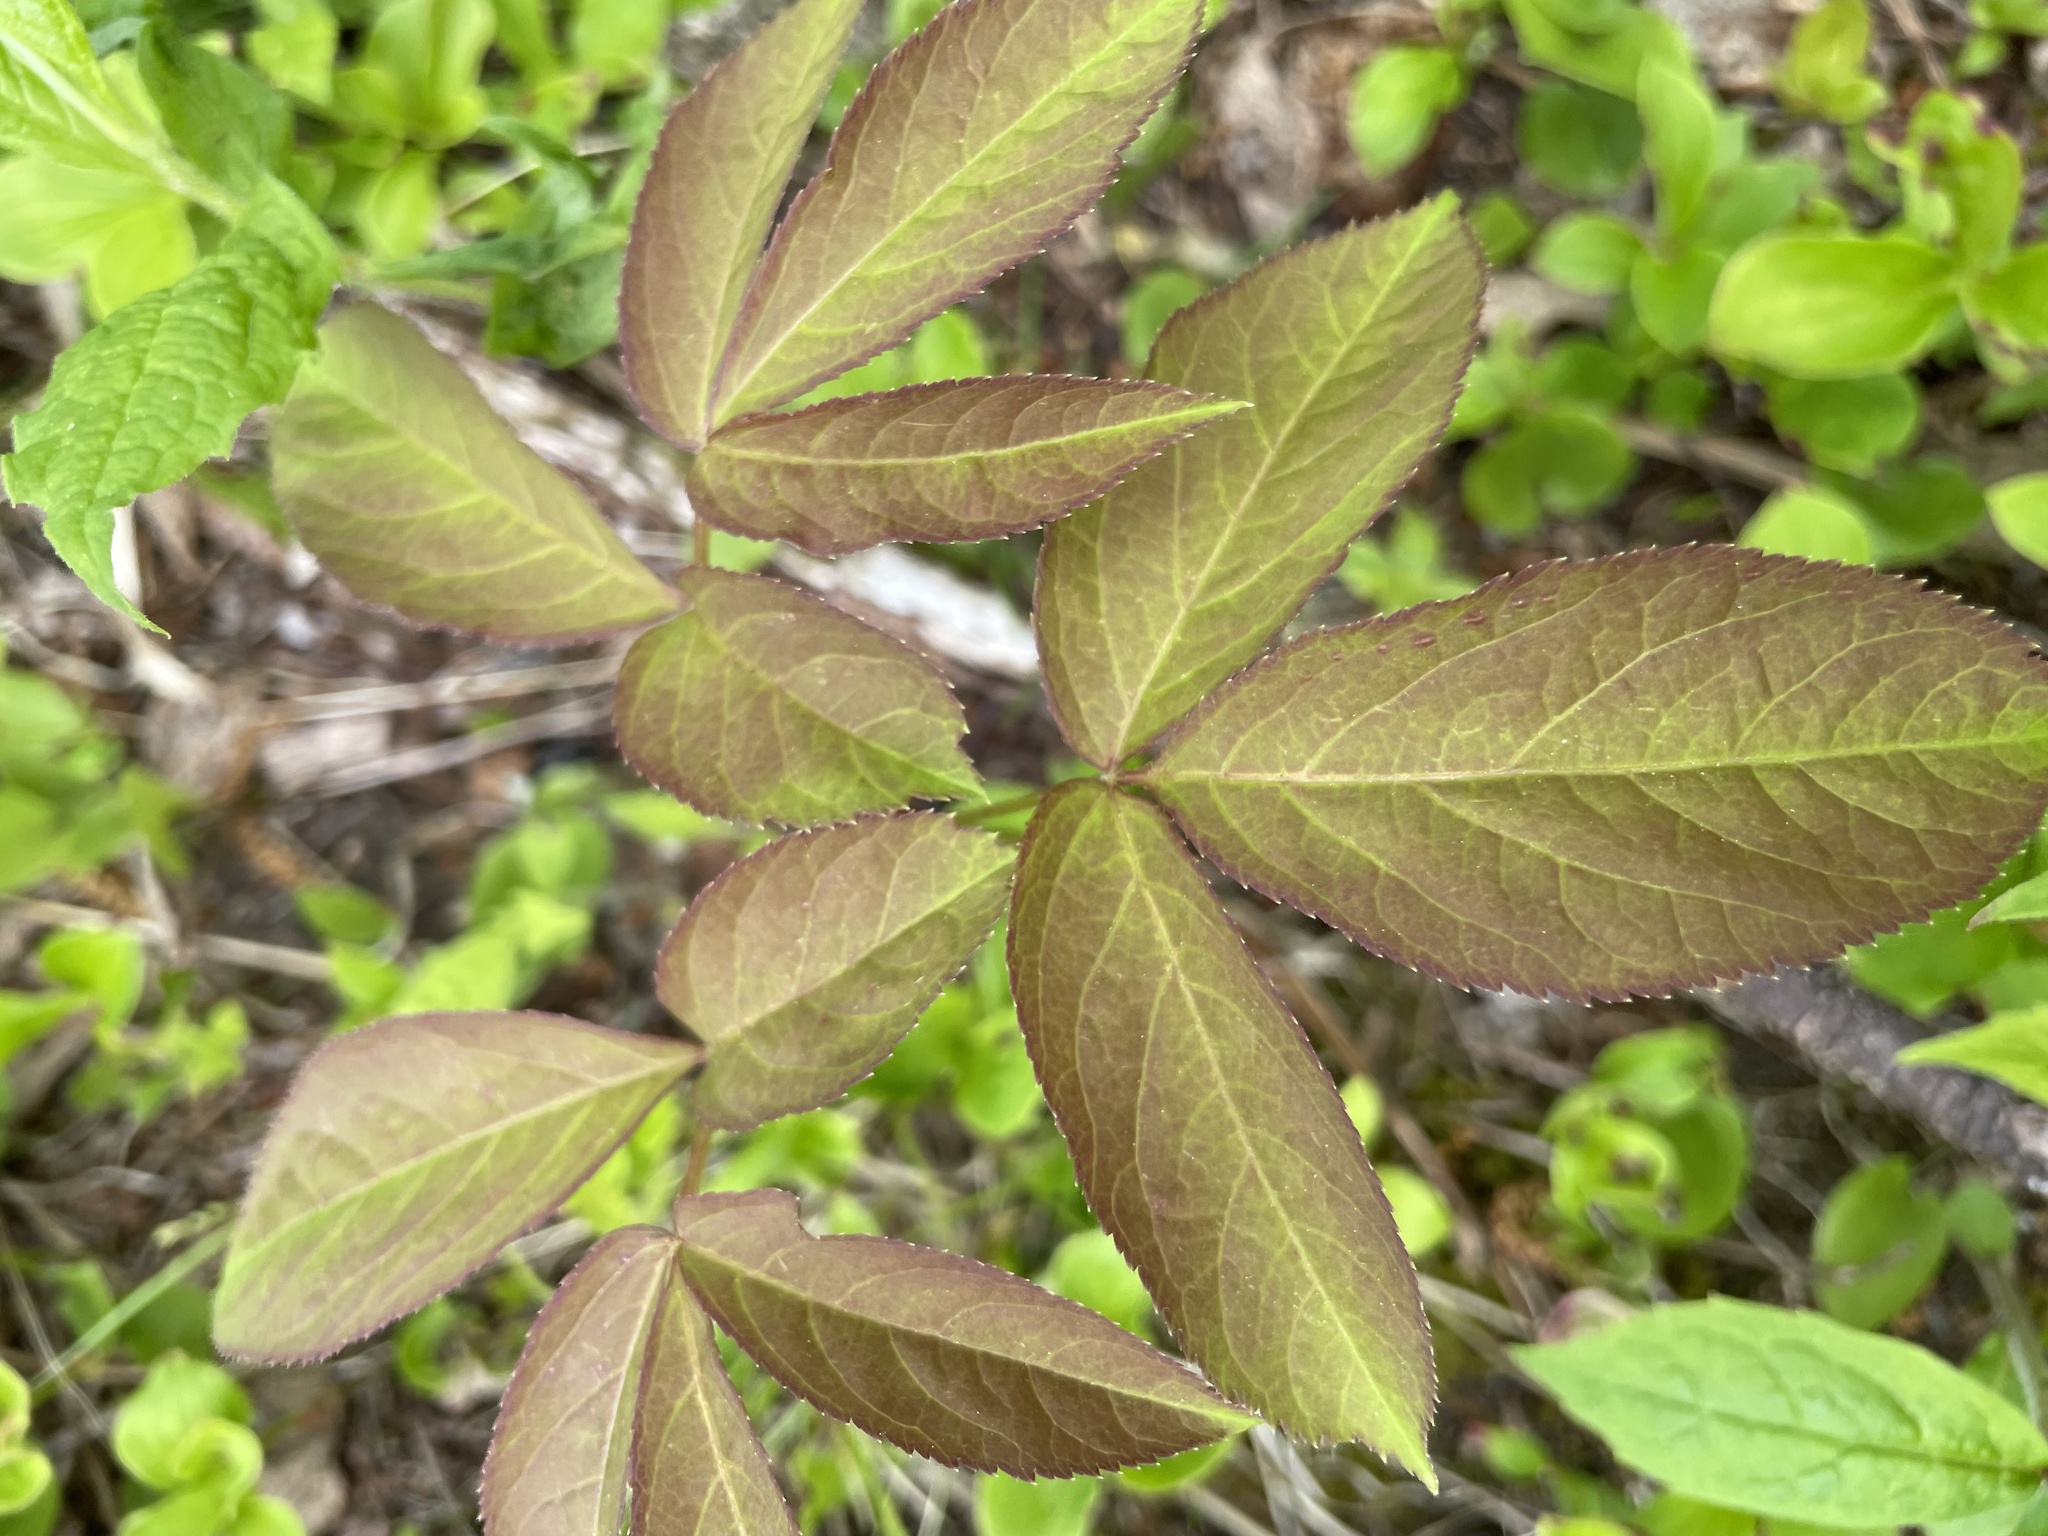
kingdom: Plantae
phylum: Tracheophyta
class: Magnoliopsida
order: Apiales
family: Araliaceae
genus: Aralia
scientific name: Aralia nudicaulis
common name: Wild sarsaparilla
